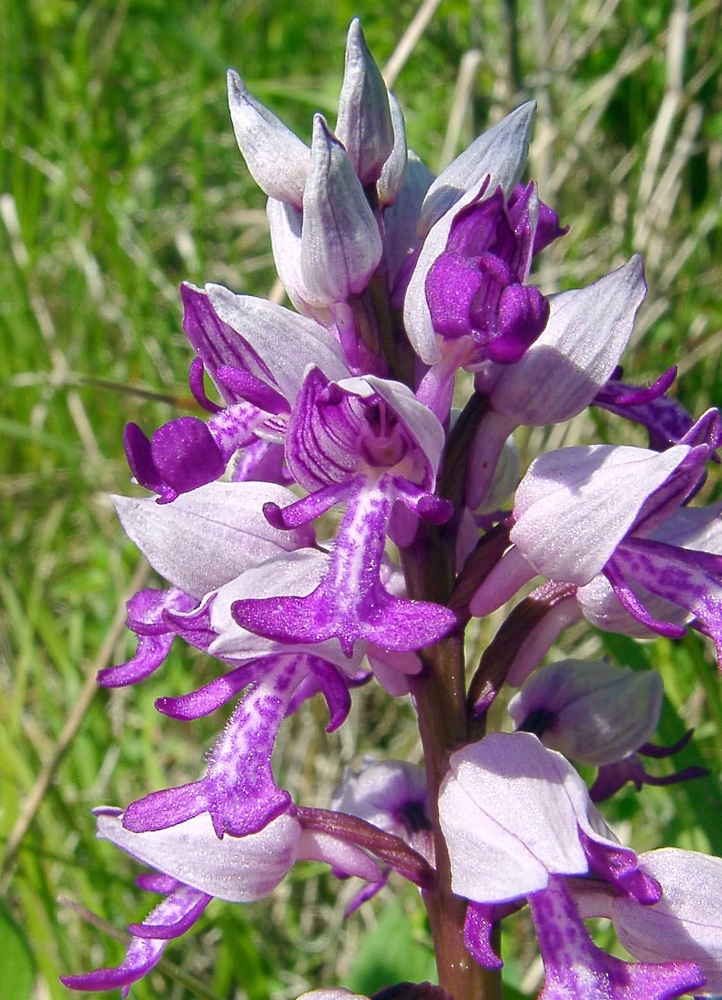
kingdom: Plantae
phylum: Tracheophyta
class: Liliopsida
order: Asparagales
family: Orchidaceae
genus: Orchis
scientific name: Orchis militaris
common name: Military orchid
